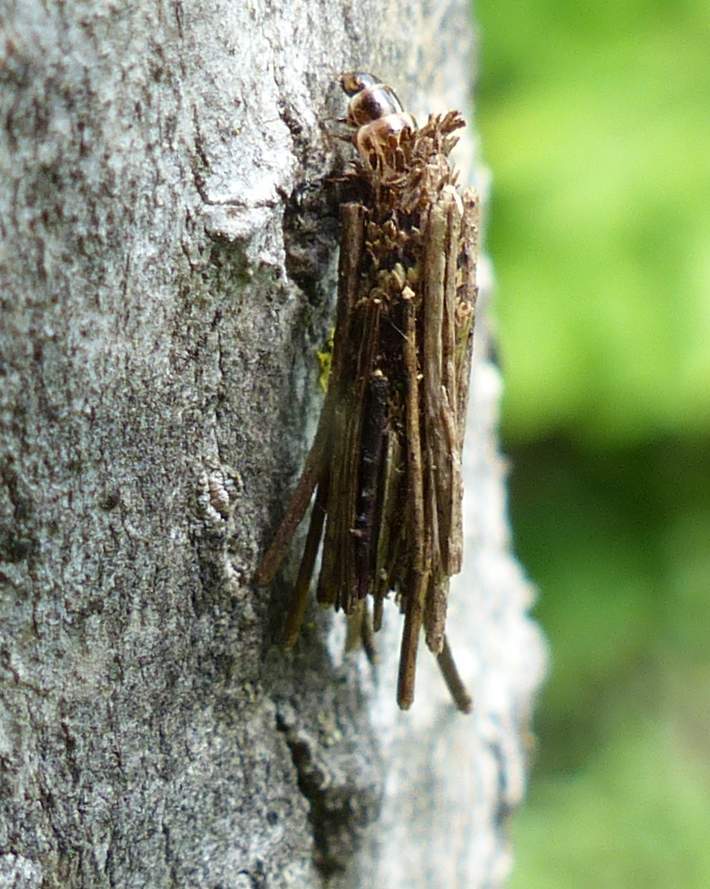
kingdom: Animalia
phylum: Arthropoda
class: Insecta
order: Lepidoptera
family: Psychidae
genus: Psyche
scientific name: Psyche casta
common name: Common sweep
